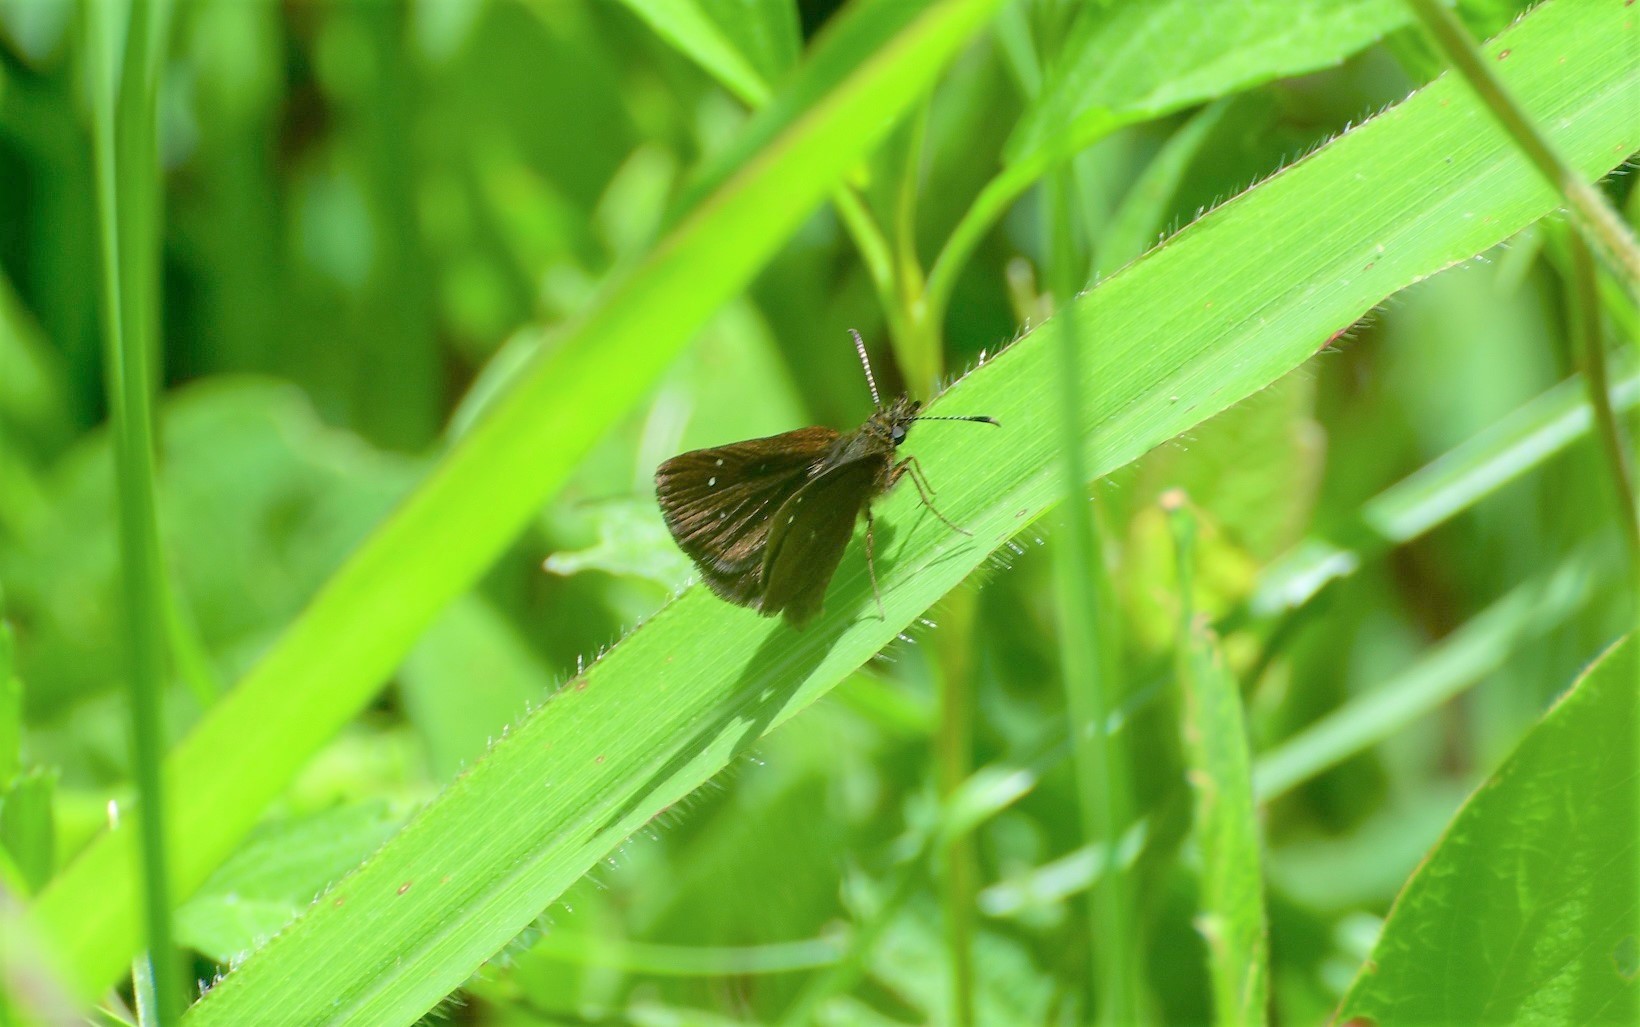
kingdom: Animalia
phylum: Arthropoda
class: Insecta
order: Lepidoptera
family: Hesperiidae
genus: Piruna
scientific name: Piruna brunnea
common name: Chocolate skipperling
